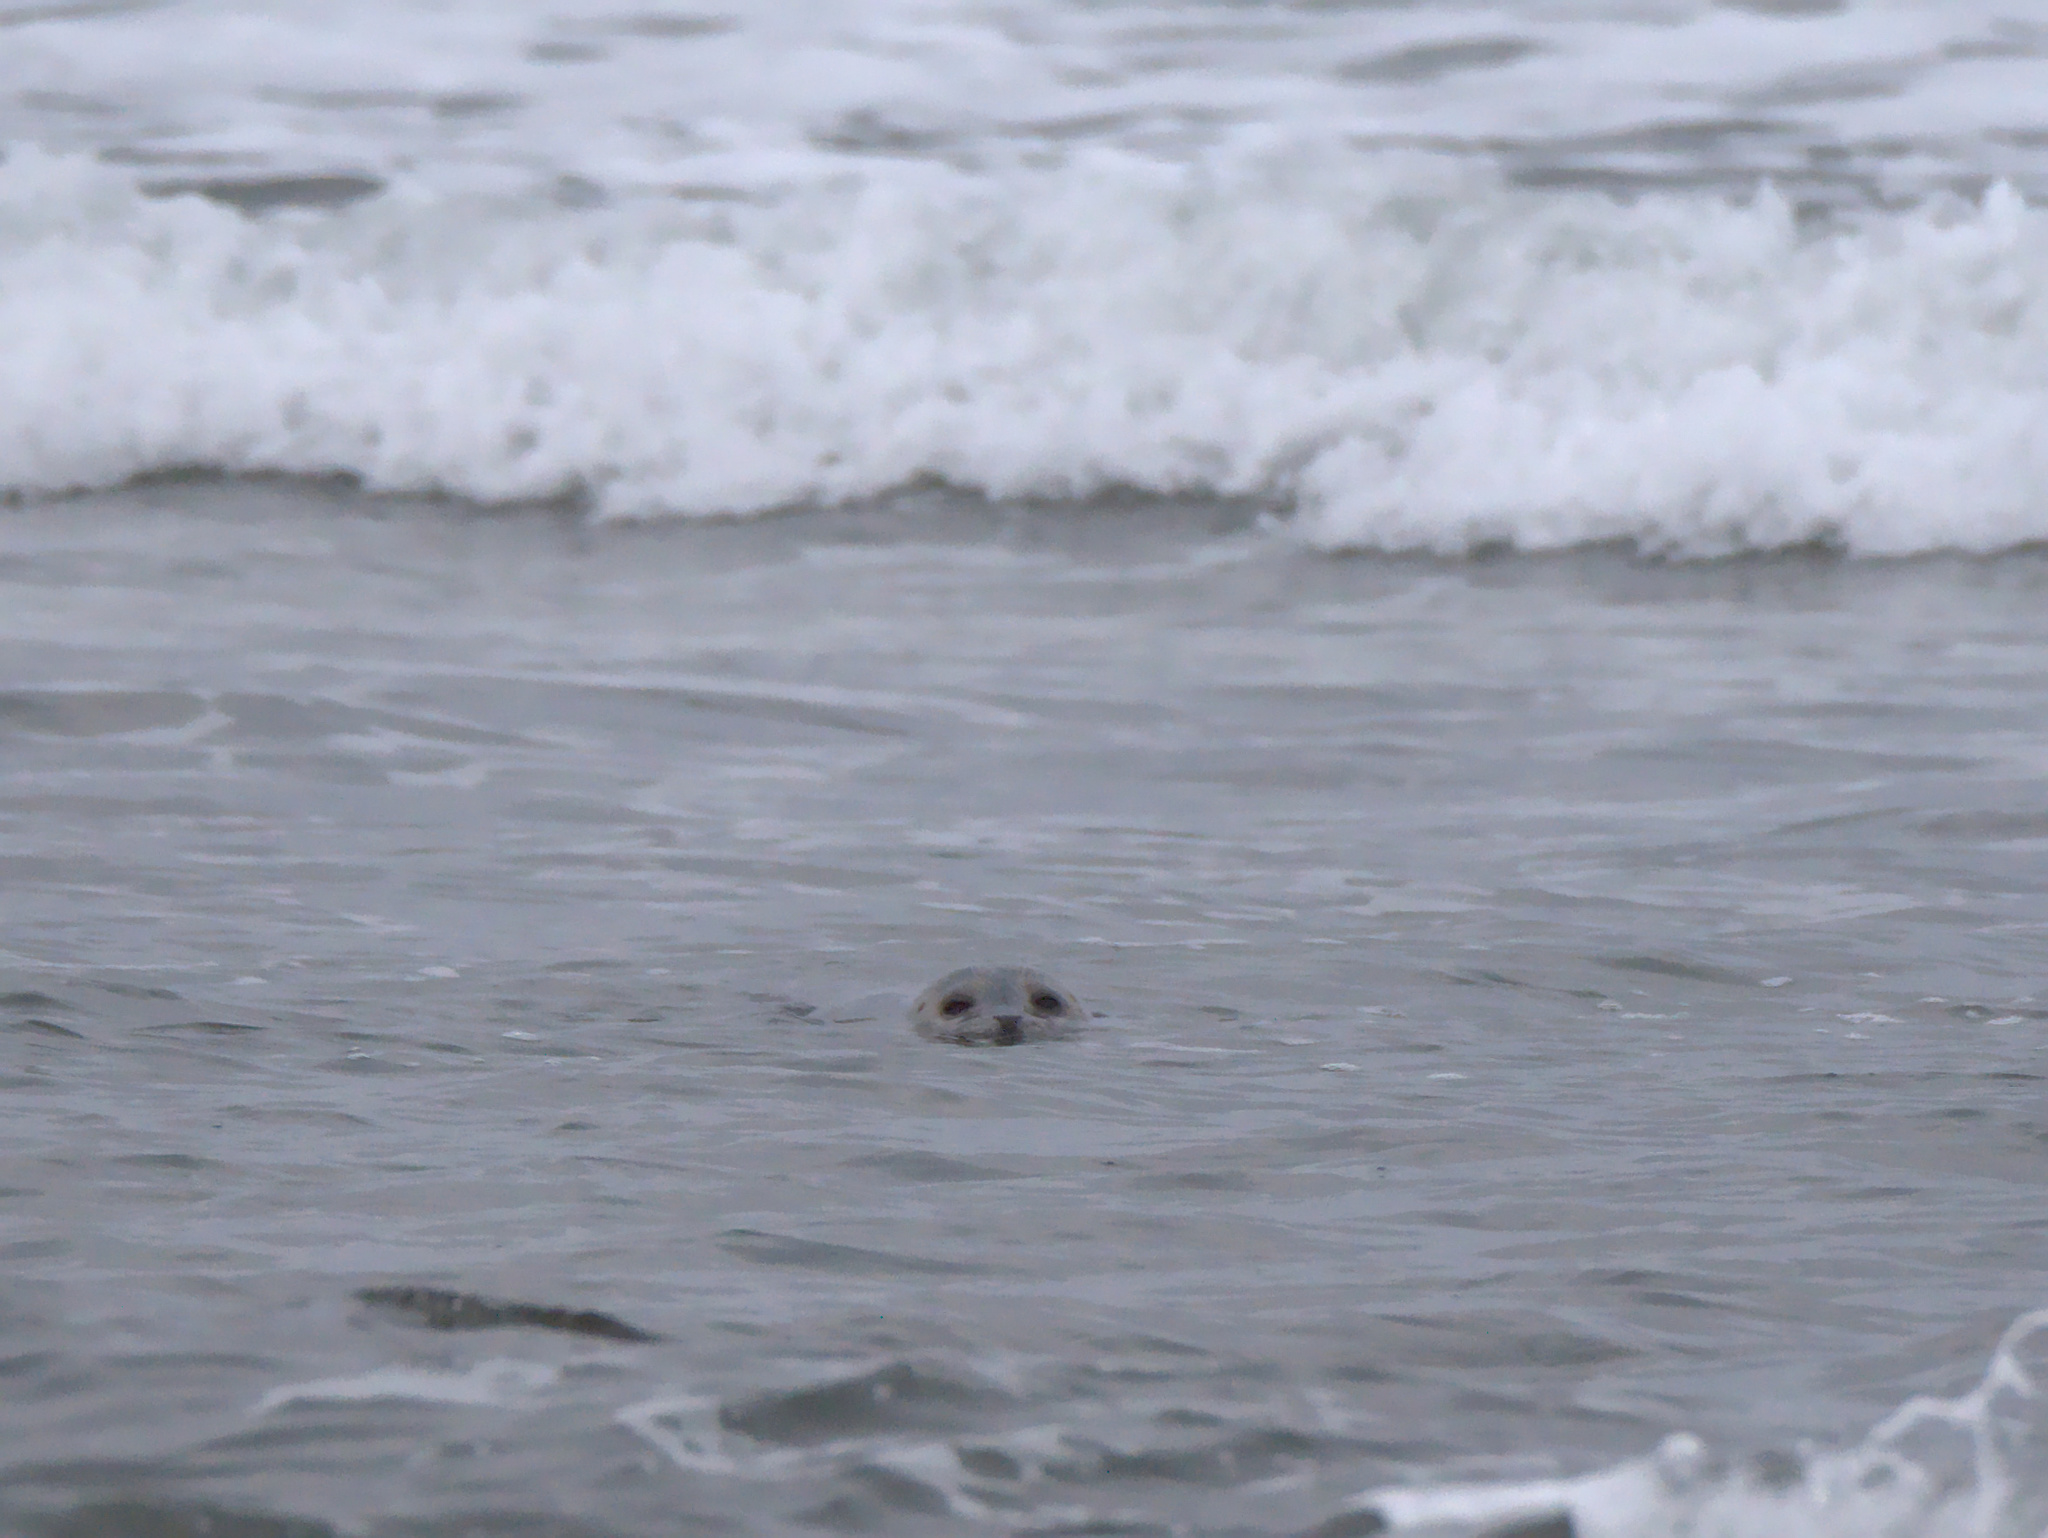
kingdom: Animalia
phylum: Chordata
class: Mammalia
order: Carnivora
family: Phocidae
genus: Phoca
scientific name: Phoca vitulina
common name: Harbor seal
